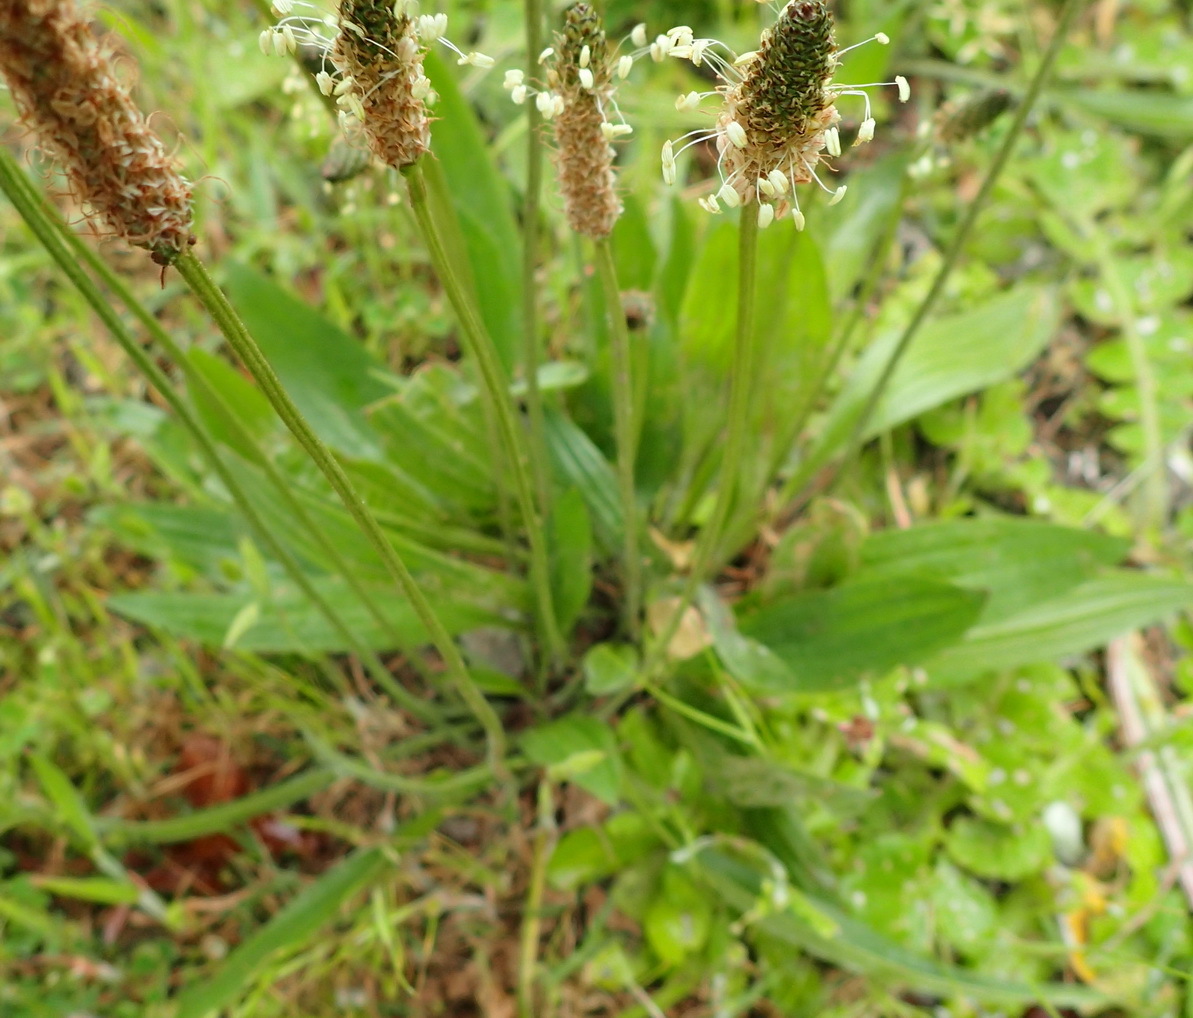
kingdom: Plantae
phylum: Tracheophyta
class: Magnoliopsida
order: Lamiales
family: Plantaginaceae
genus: Plantago
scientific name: Plantago lanceolata
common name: Ribwort plantain
